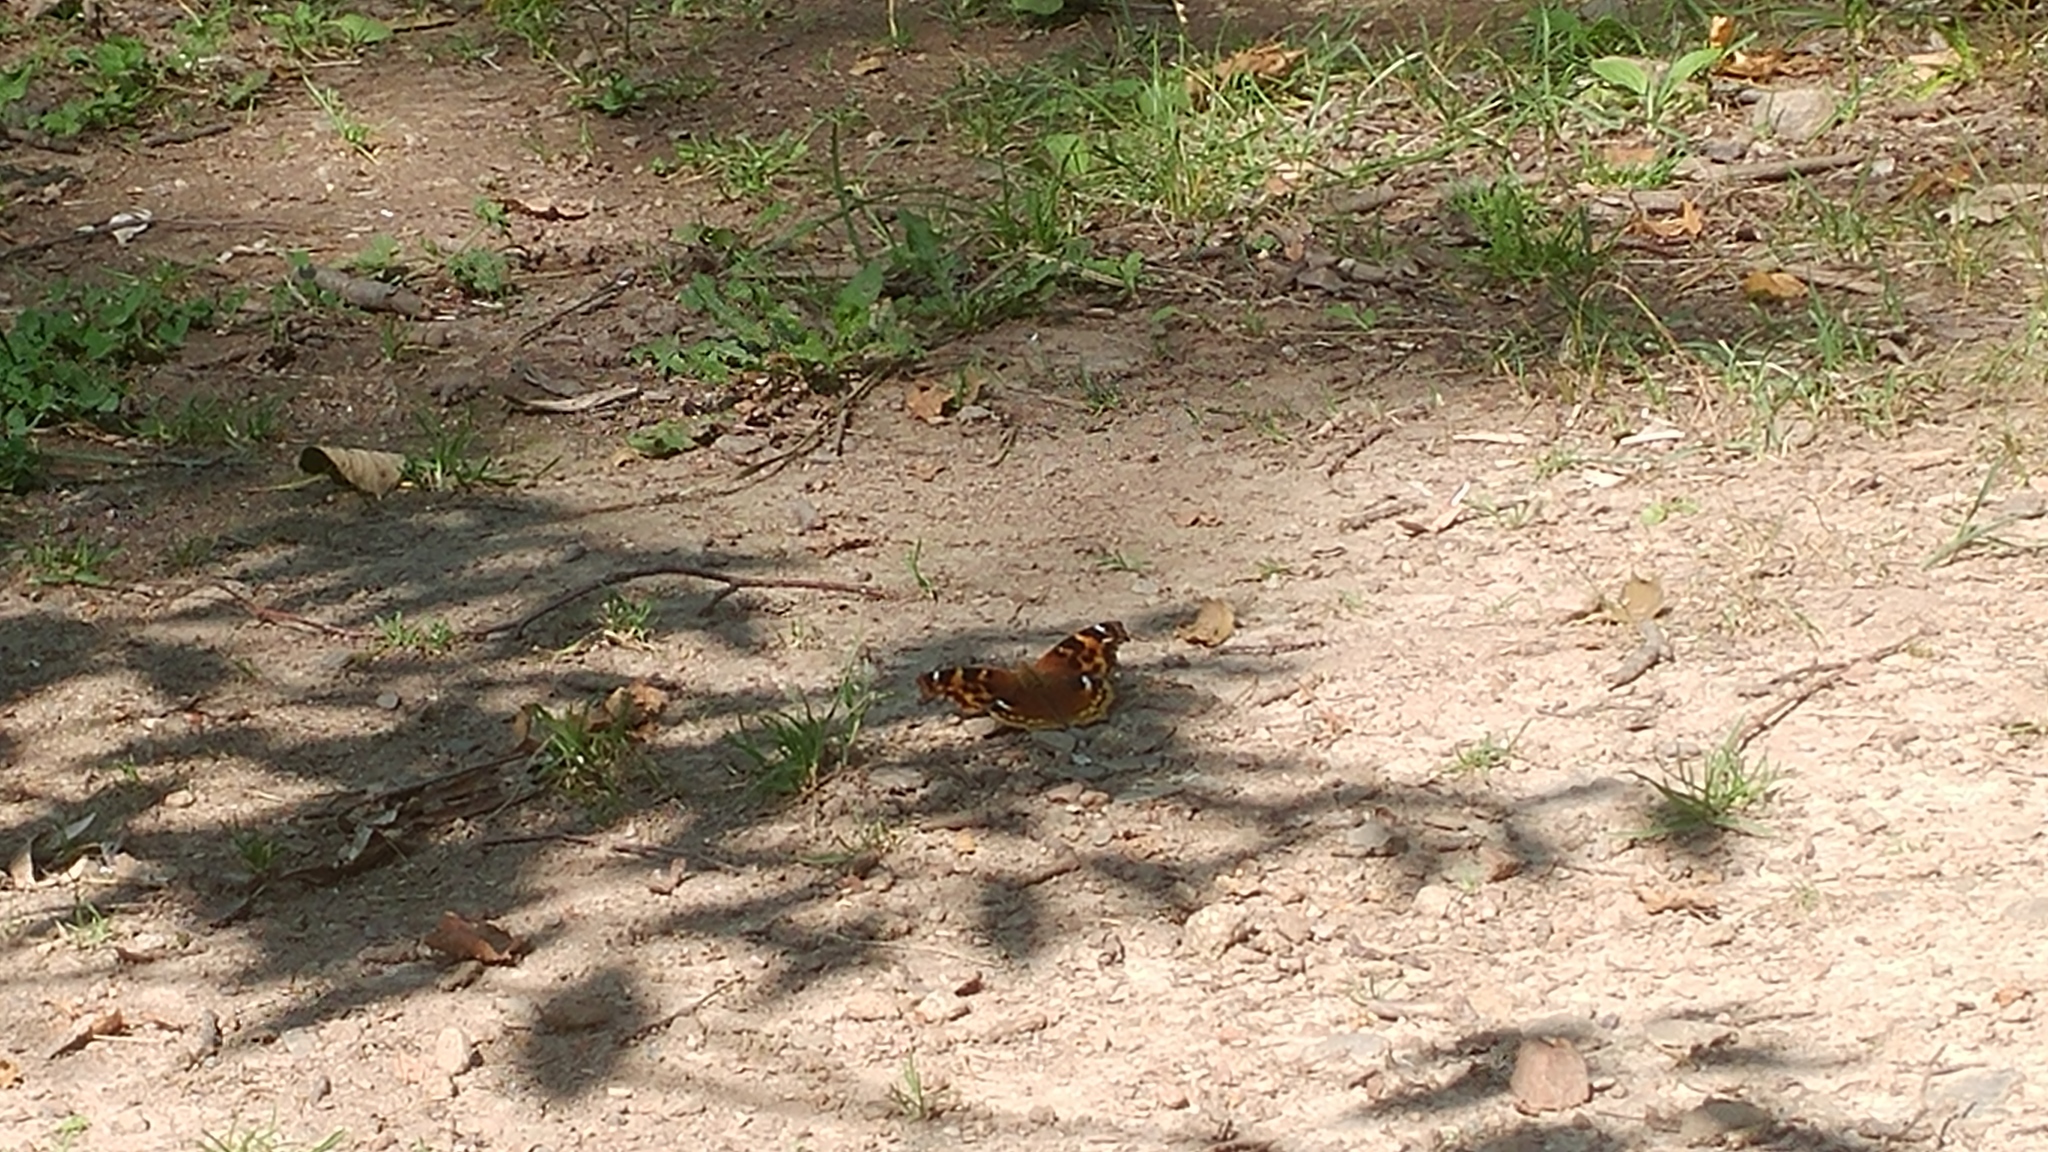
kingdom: Animalia
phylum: Arthropoda
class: Insecta
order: Lepidoptera
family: Nymphalidae
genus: Polygonia
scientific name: Polygonia vaualbum
